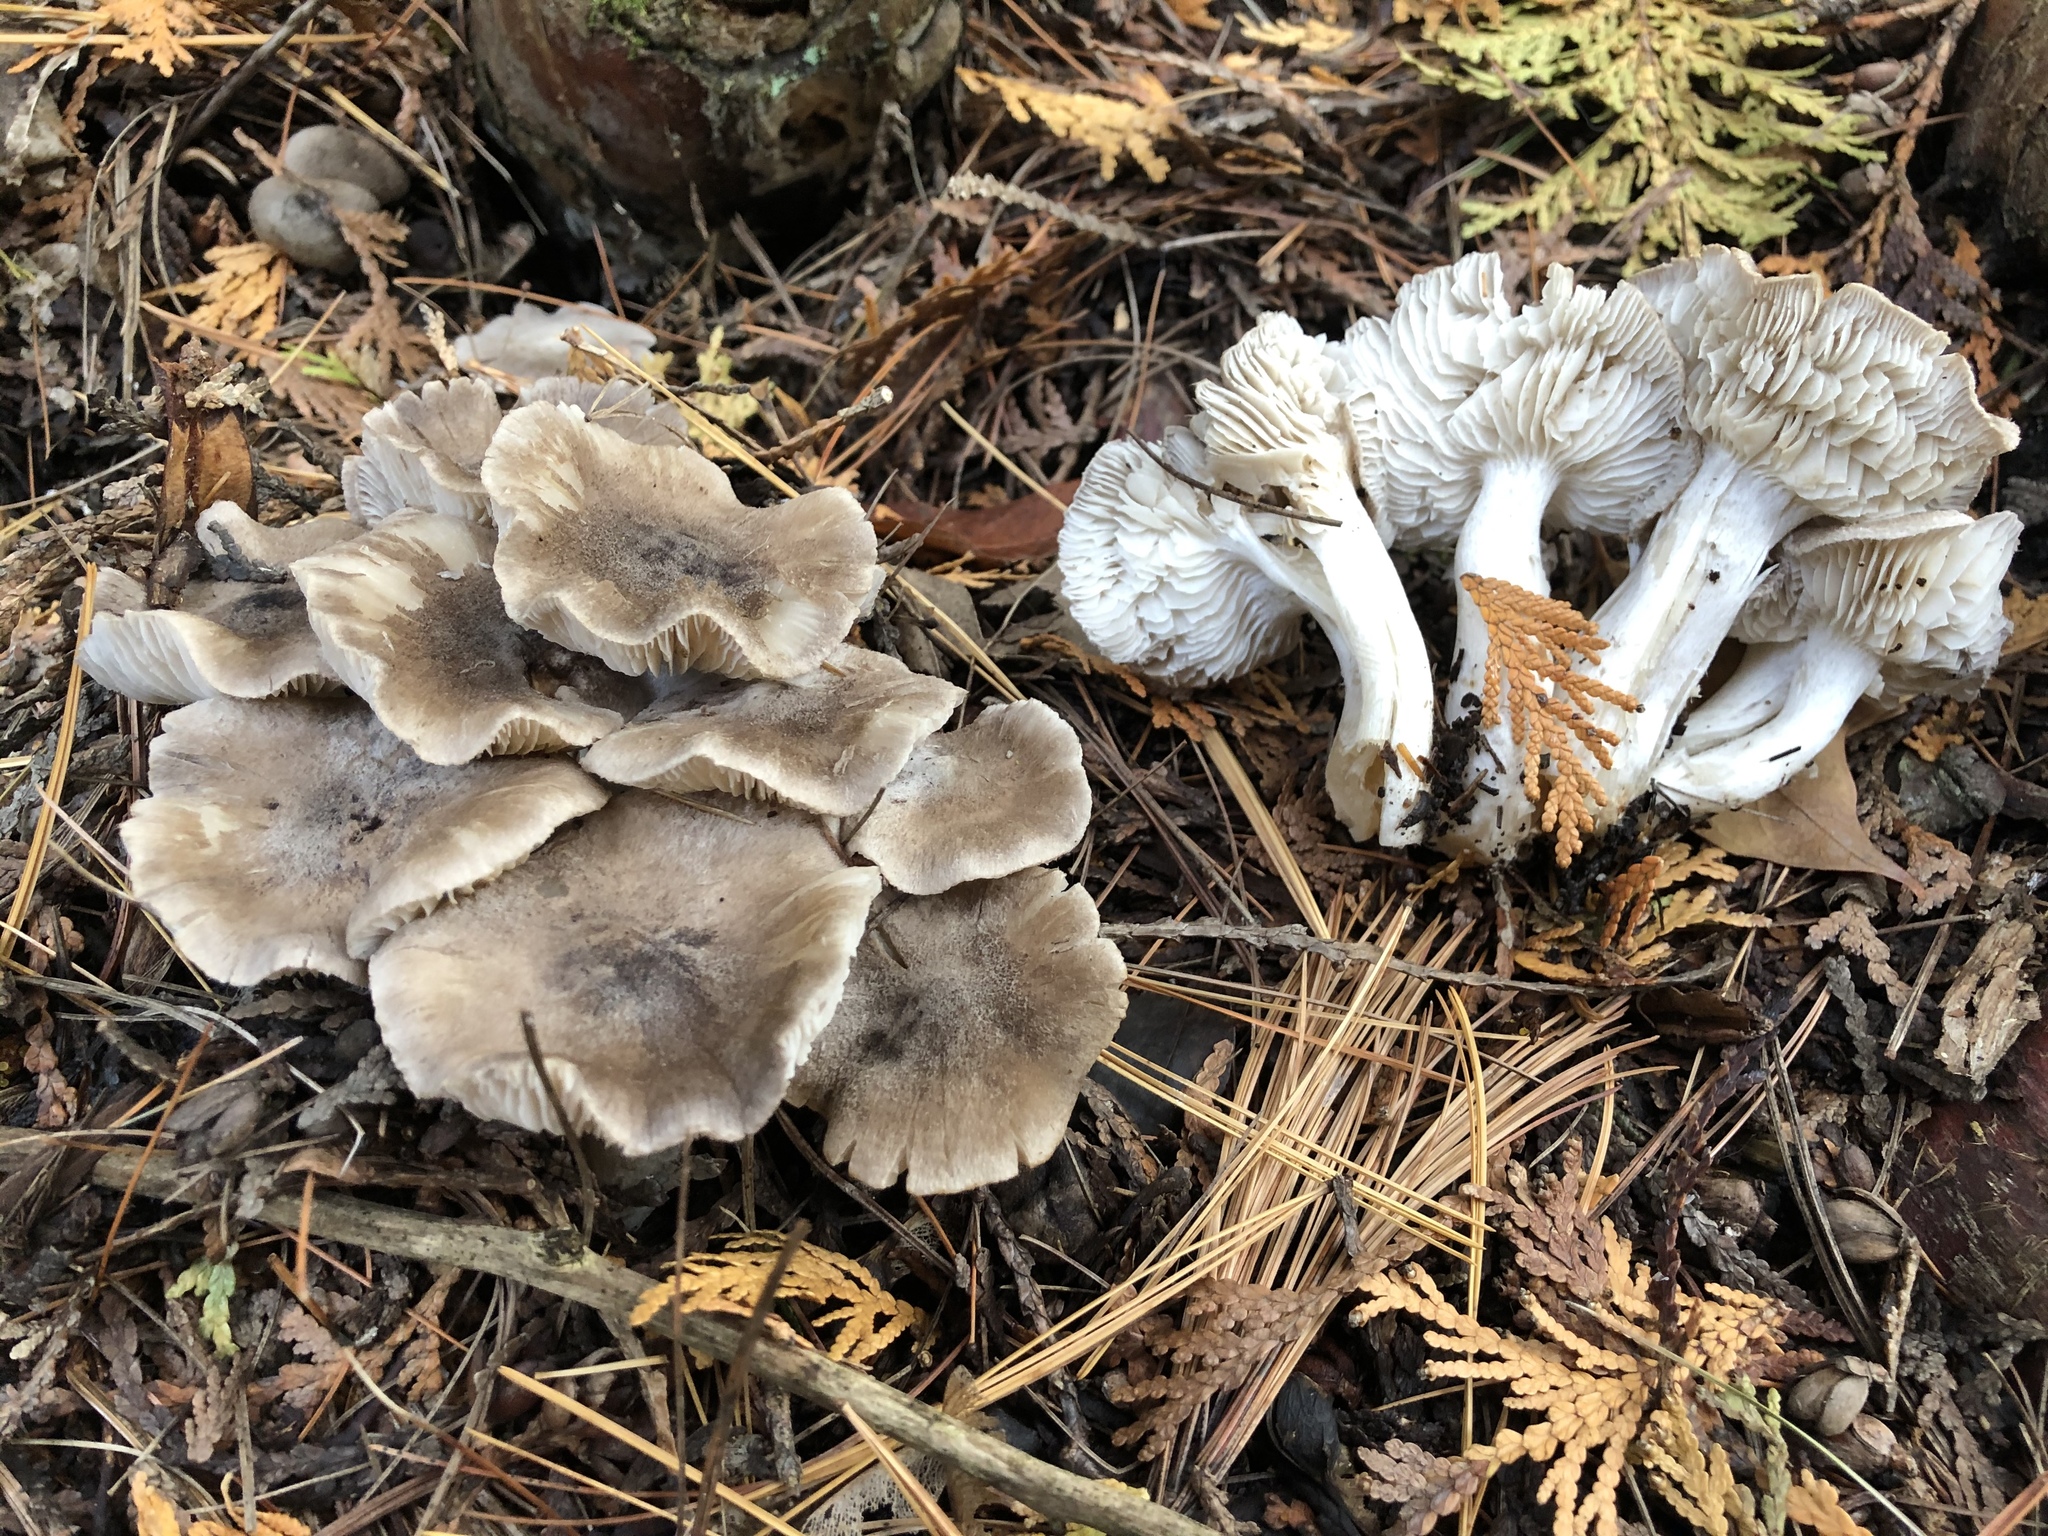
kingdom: Fungi
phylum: Basidiomycota
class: Agaricomycetes
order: Agaricales
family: Tricholomataceae
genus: Tricholoma
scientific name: Tricholoma terreum
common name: Grey knight
